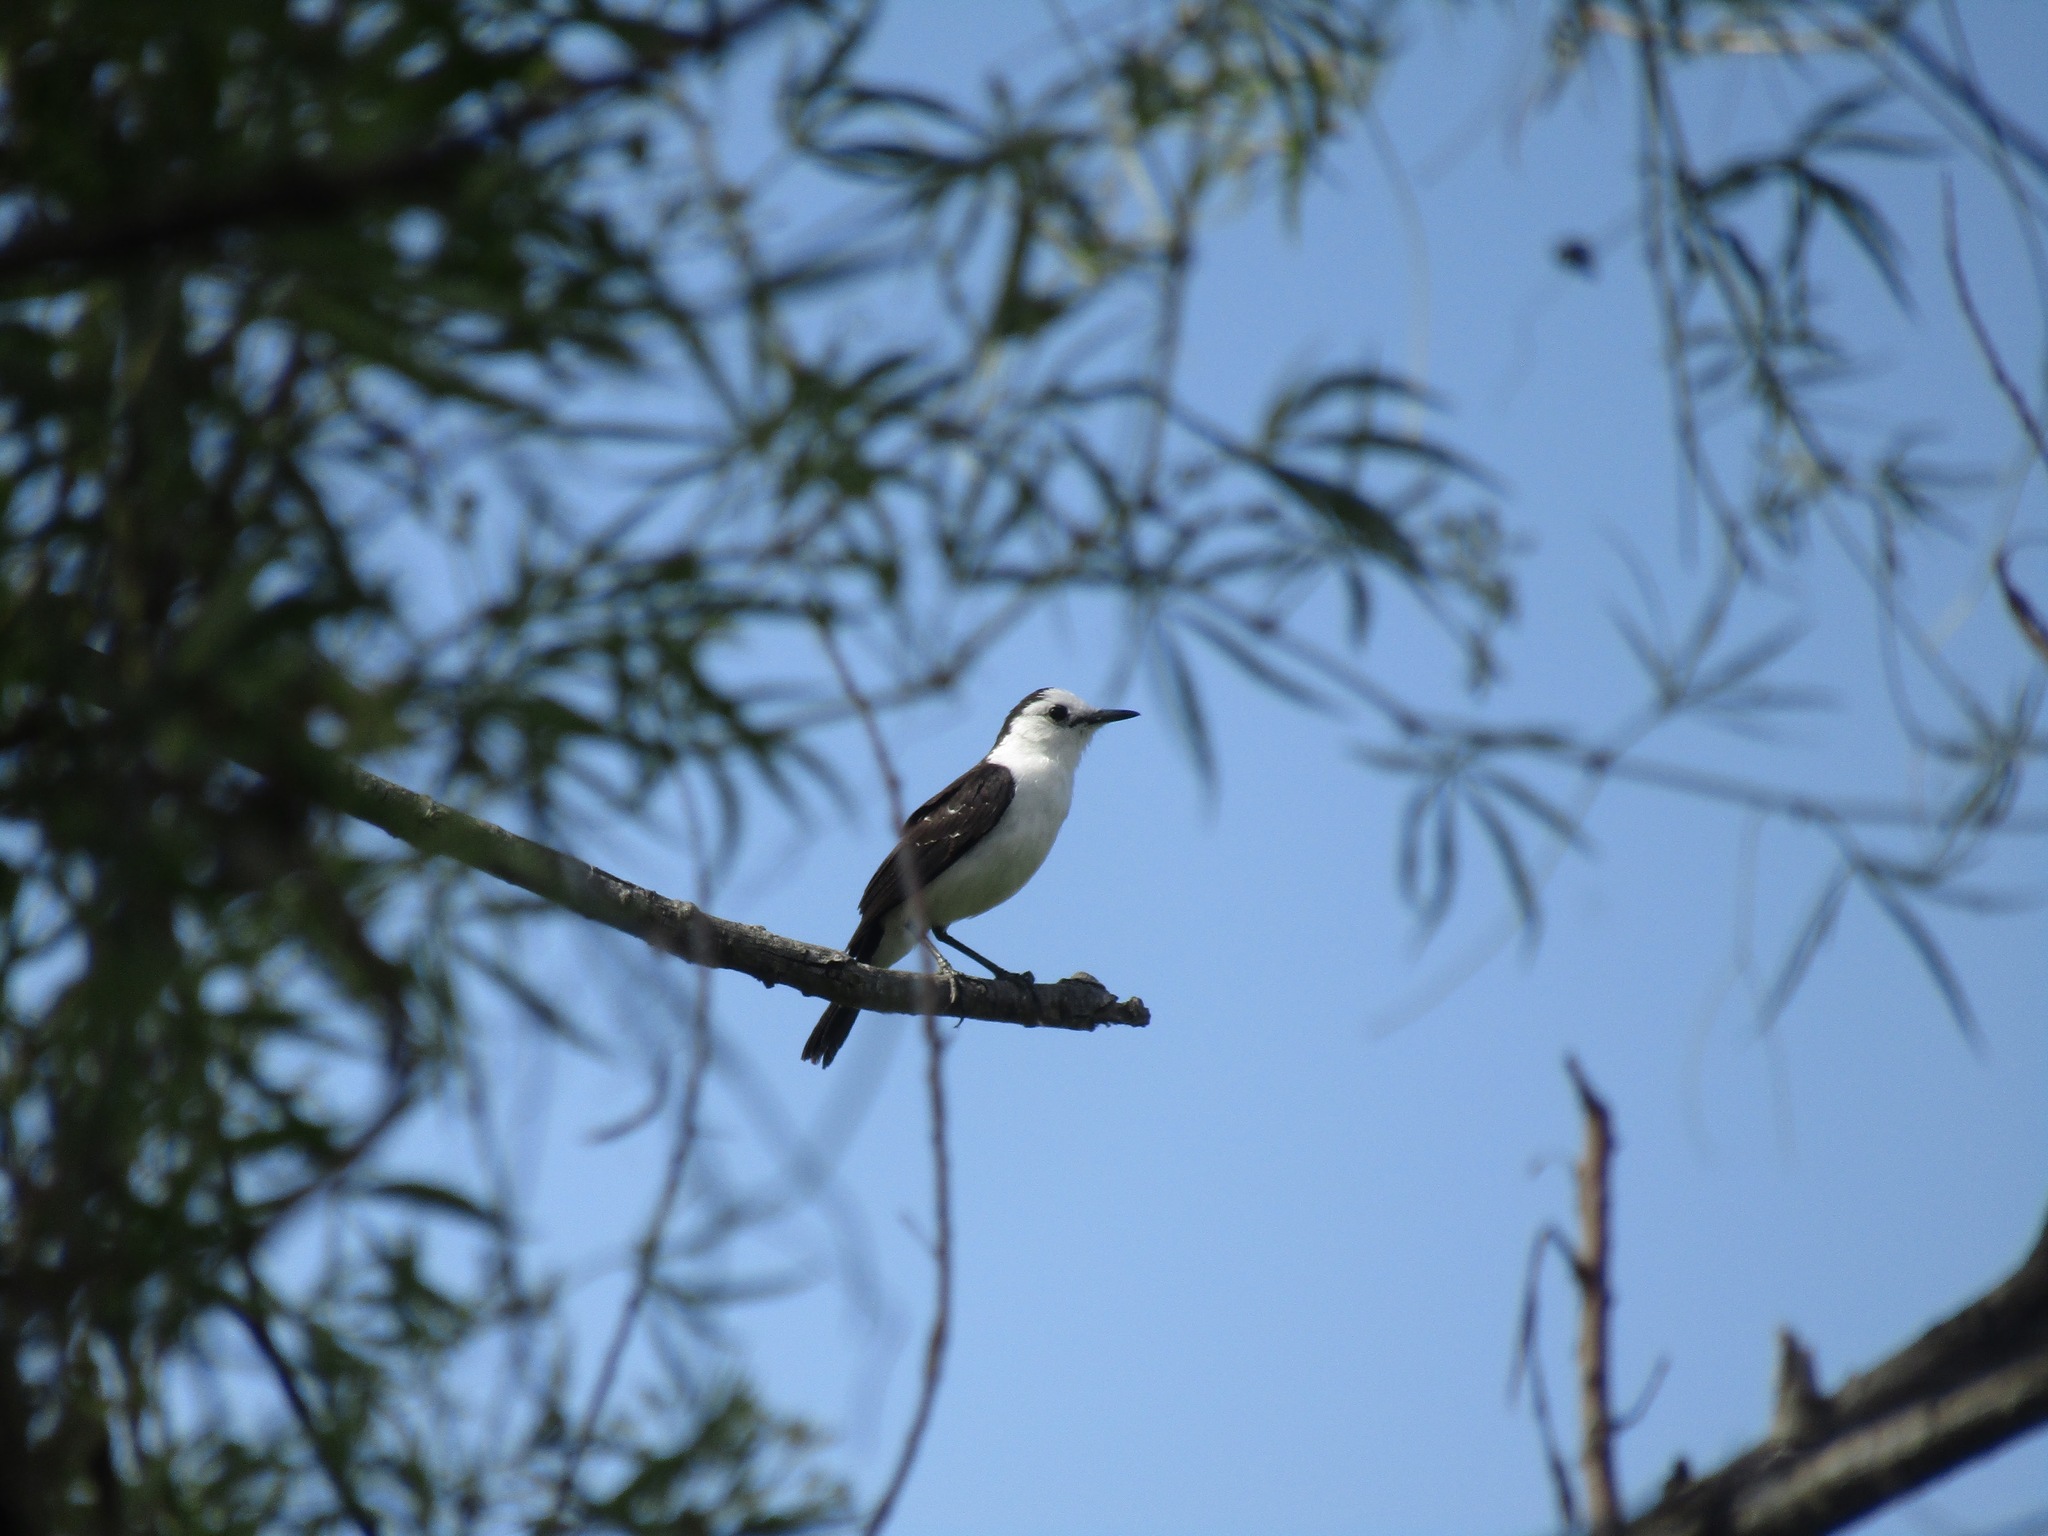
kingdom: Animalia
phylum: Chordata
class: Aves
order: Passeriformes
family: Tyrannidae
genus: Fluvicola
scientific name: Fluvicola pica
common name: Pied water-tyrant
